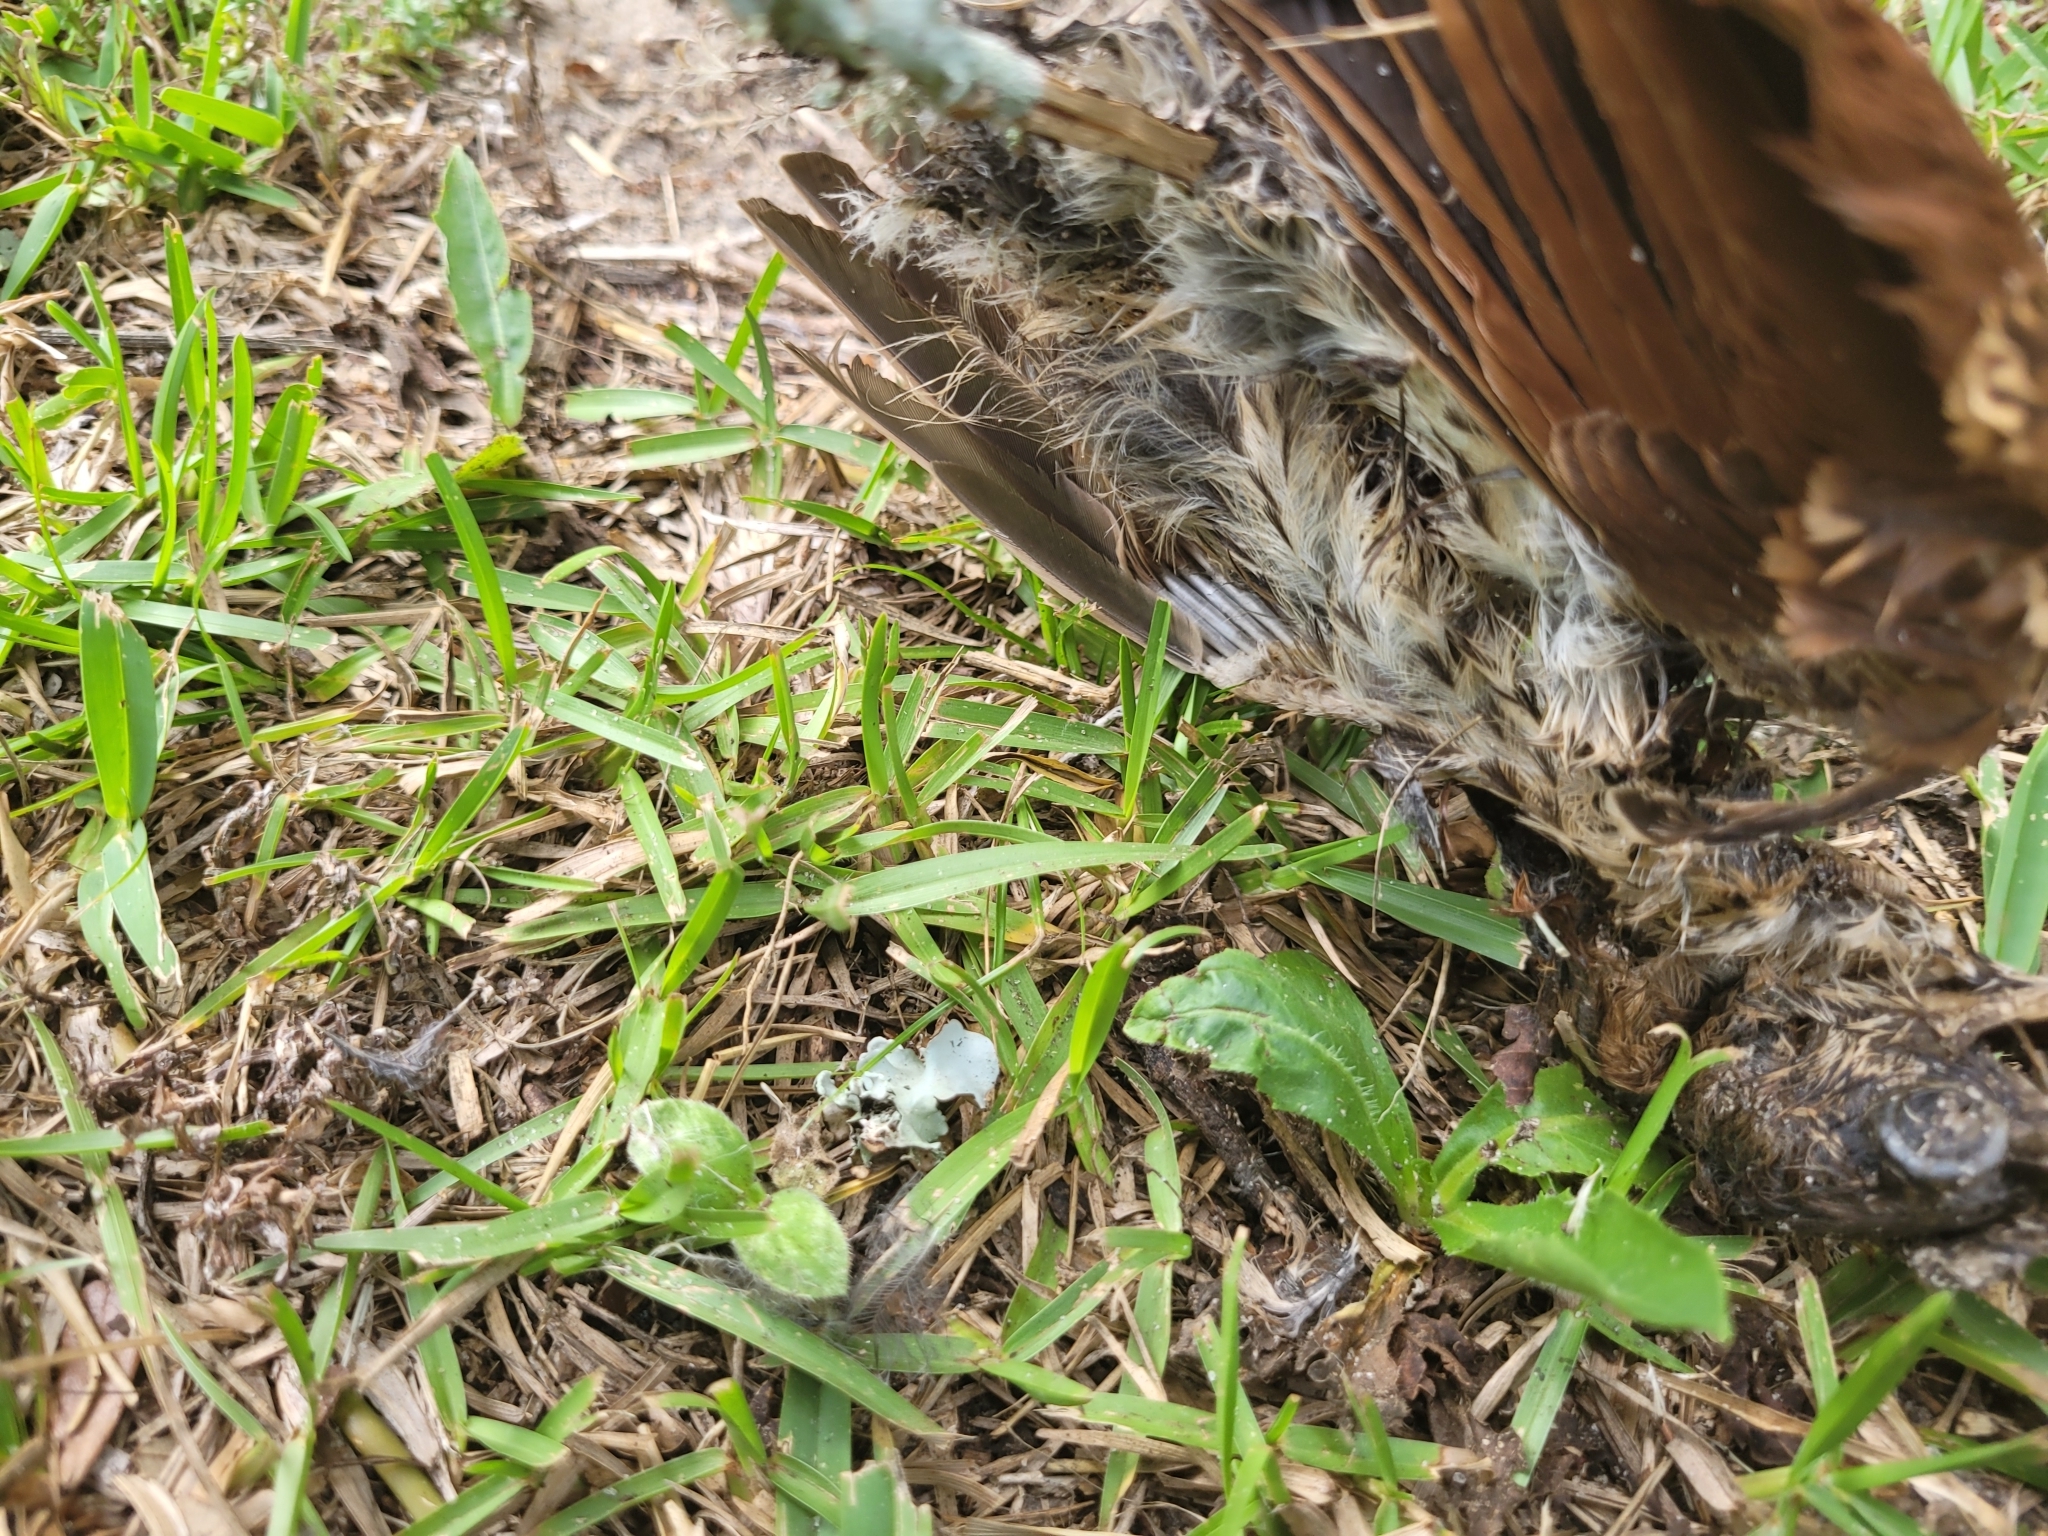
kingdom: Animalia
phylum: Chordata
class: Aves
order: Passeriformes
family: Mimidae
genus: Toxostoma
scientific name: Toxostoma rufum
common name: Brown thrasher
